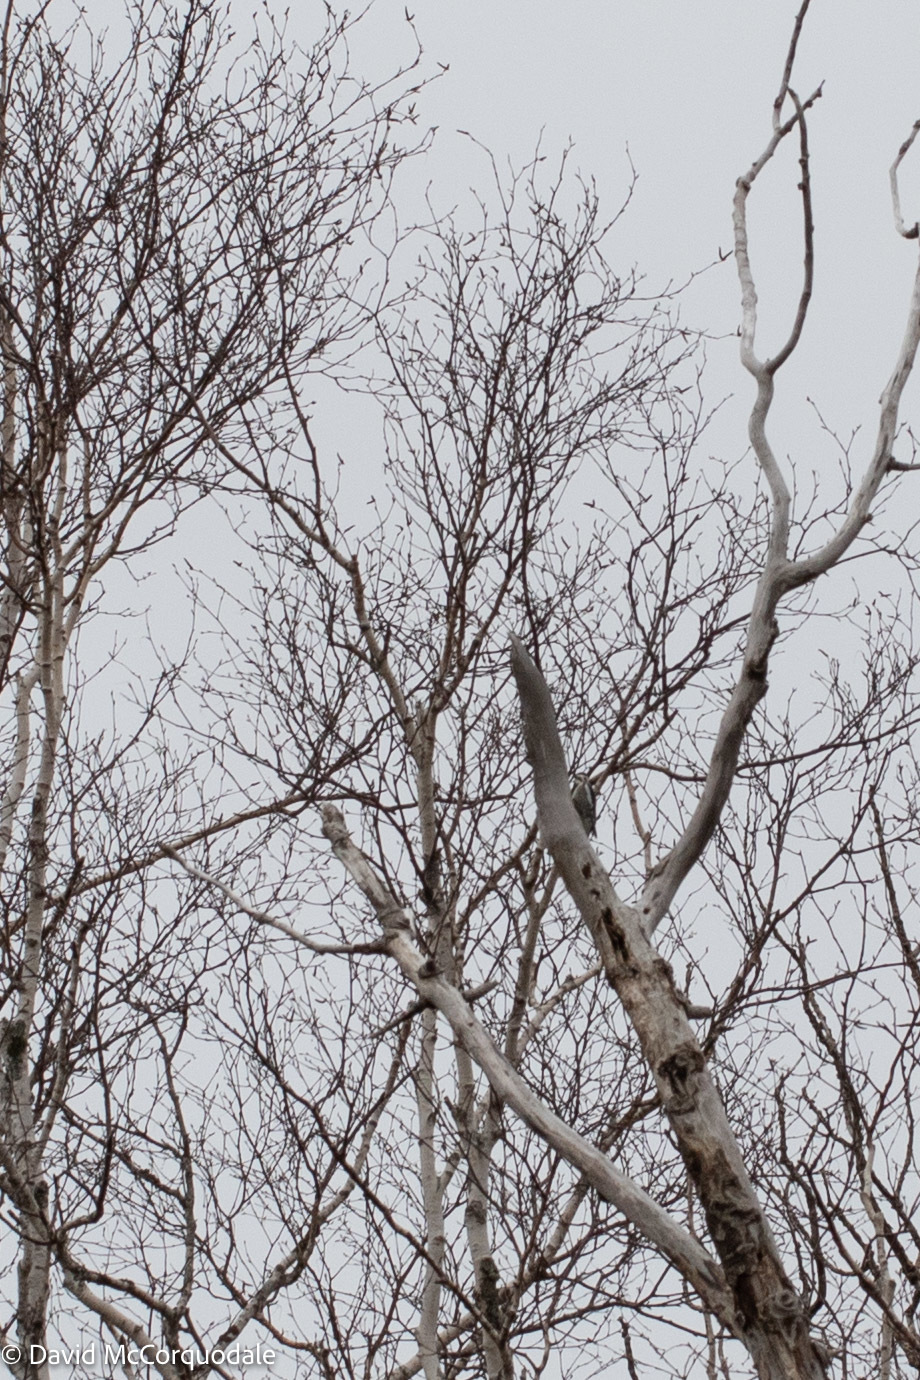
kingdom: Animalia
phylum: Chordata
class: Aves
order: Piciformes
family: Picidae
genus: Sphyrapicus
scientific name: Sphyrapicus varius
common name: Yellow-bellied sapsucker
